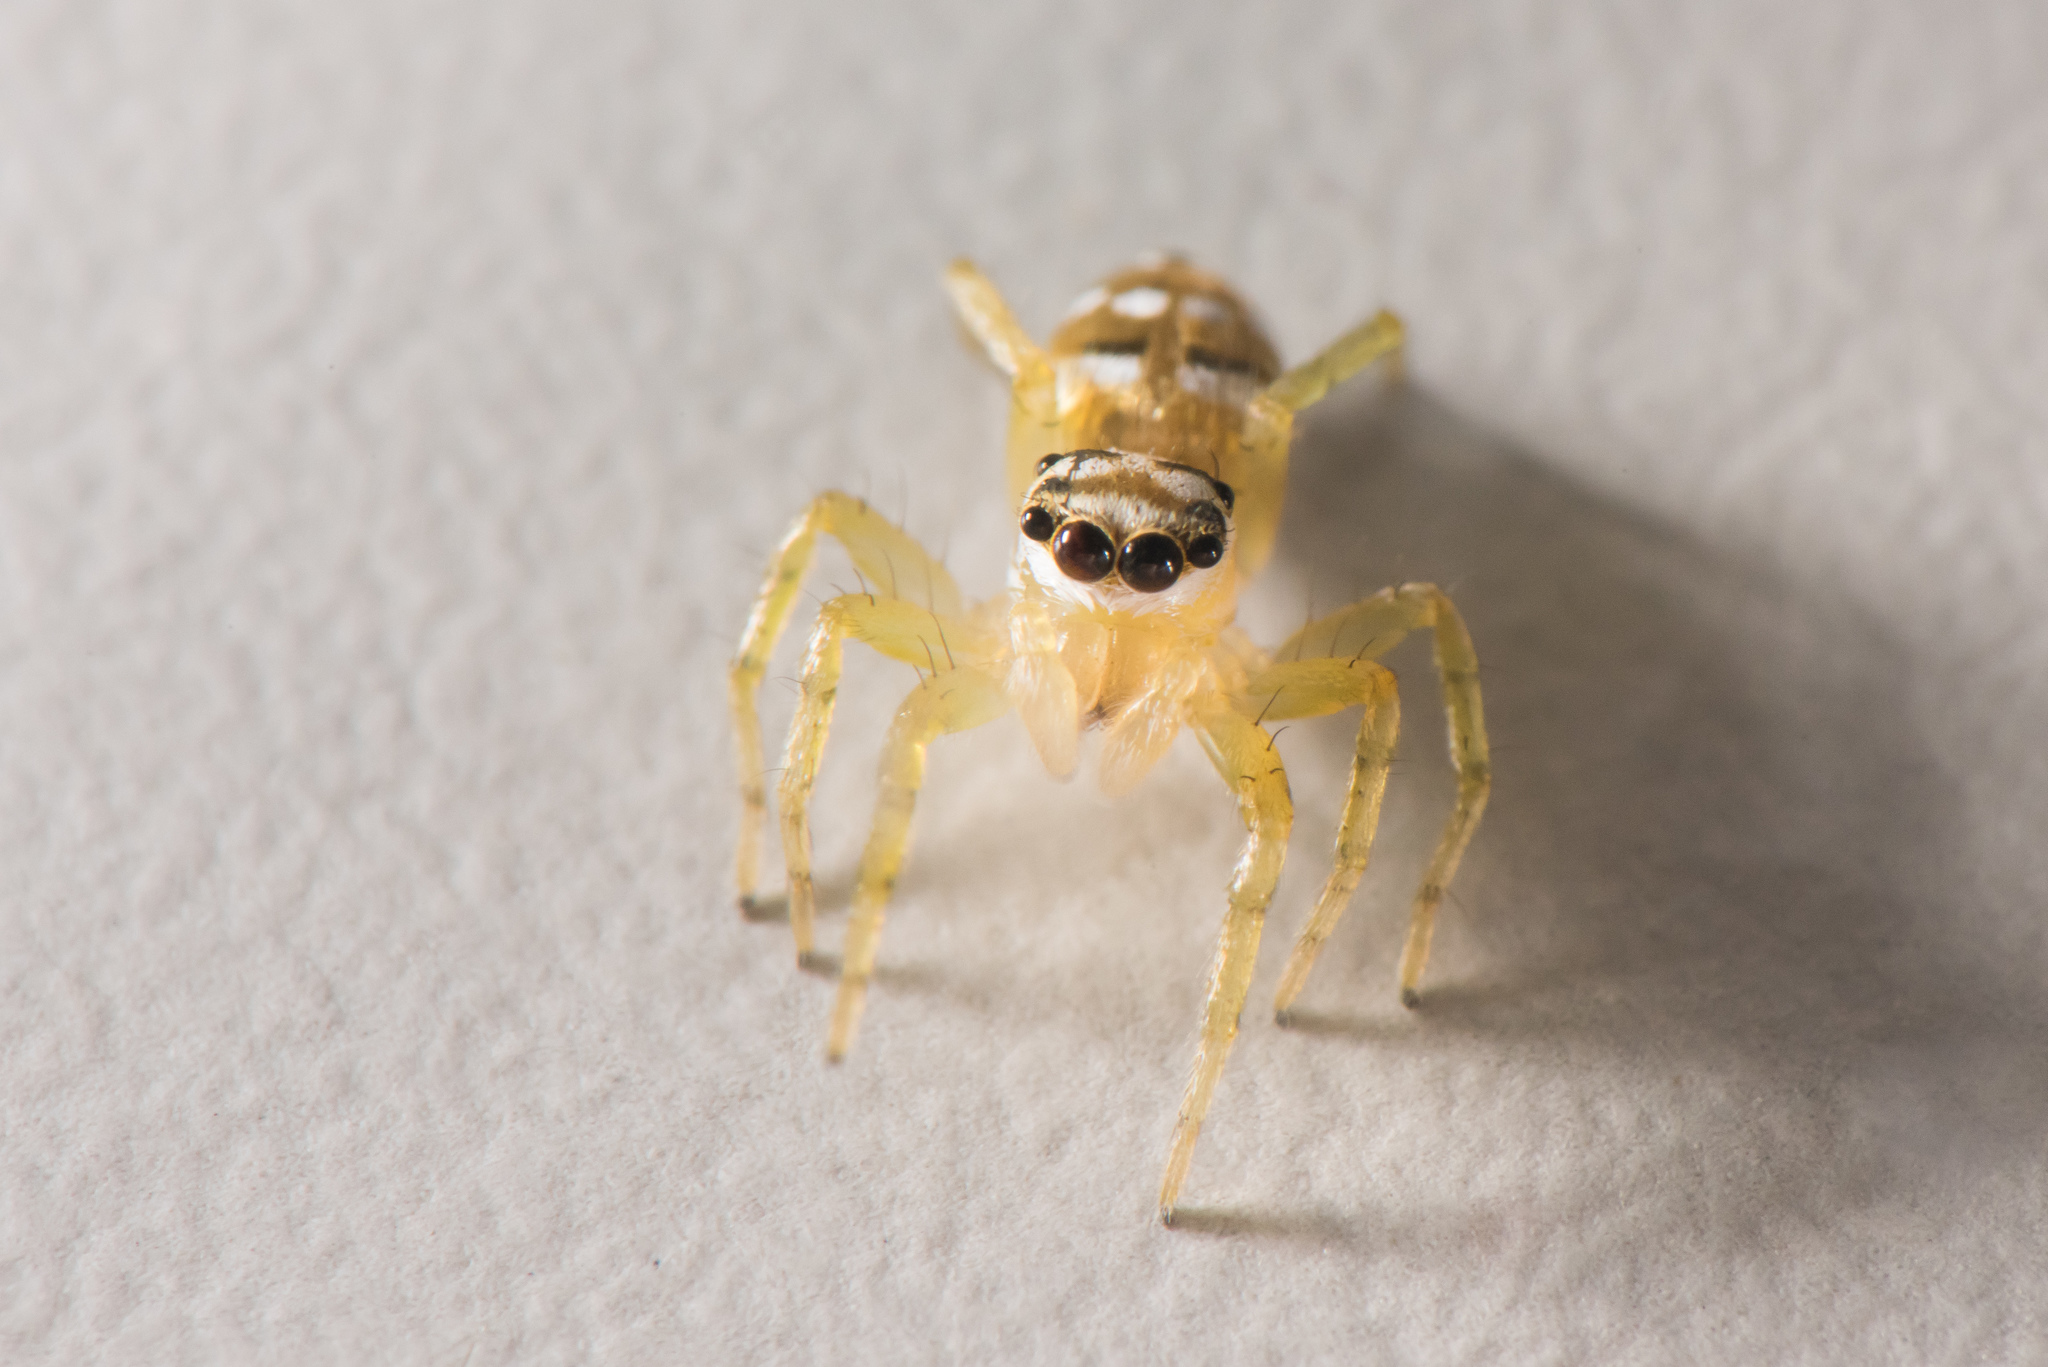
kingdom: Animalia
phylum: Arthropoda
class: Arachnida
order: Araneae
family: Salticidae
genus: Phintella
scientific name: Phintella linea
